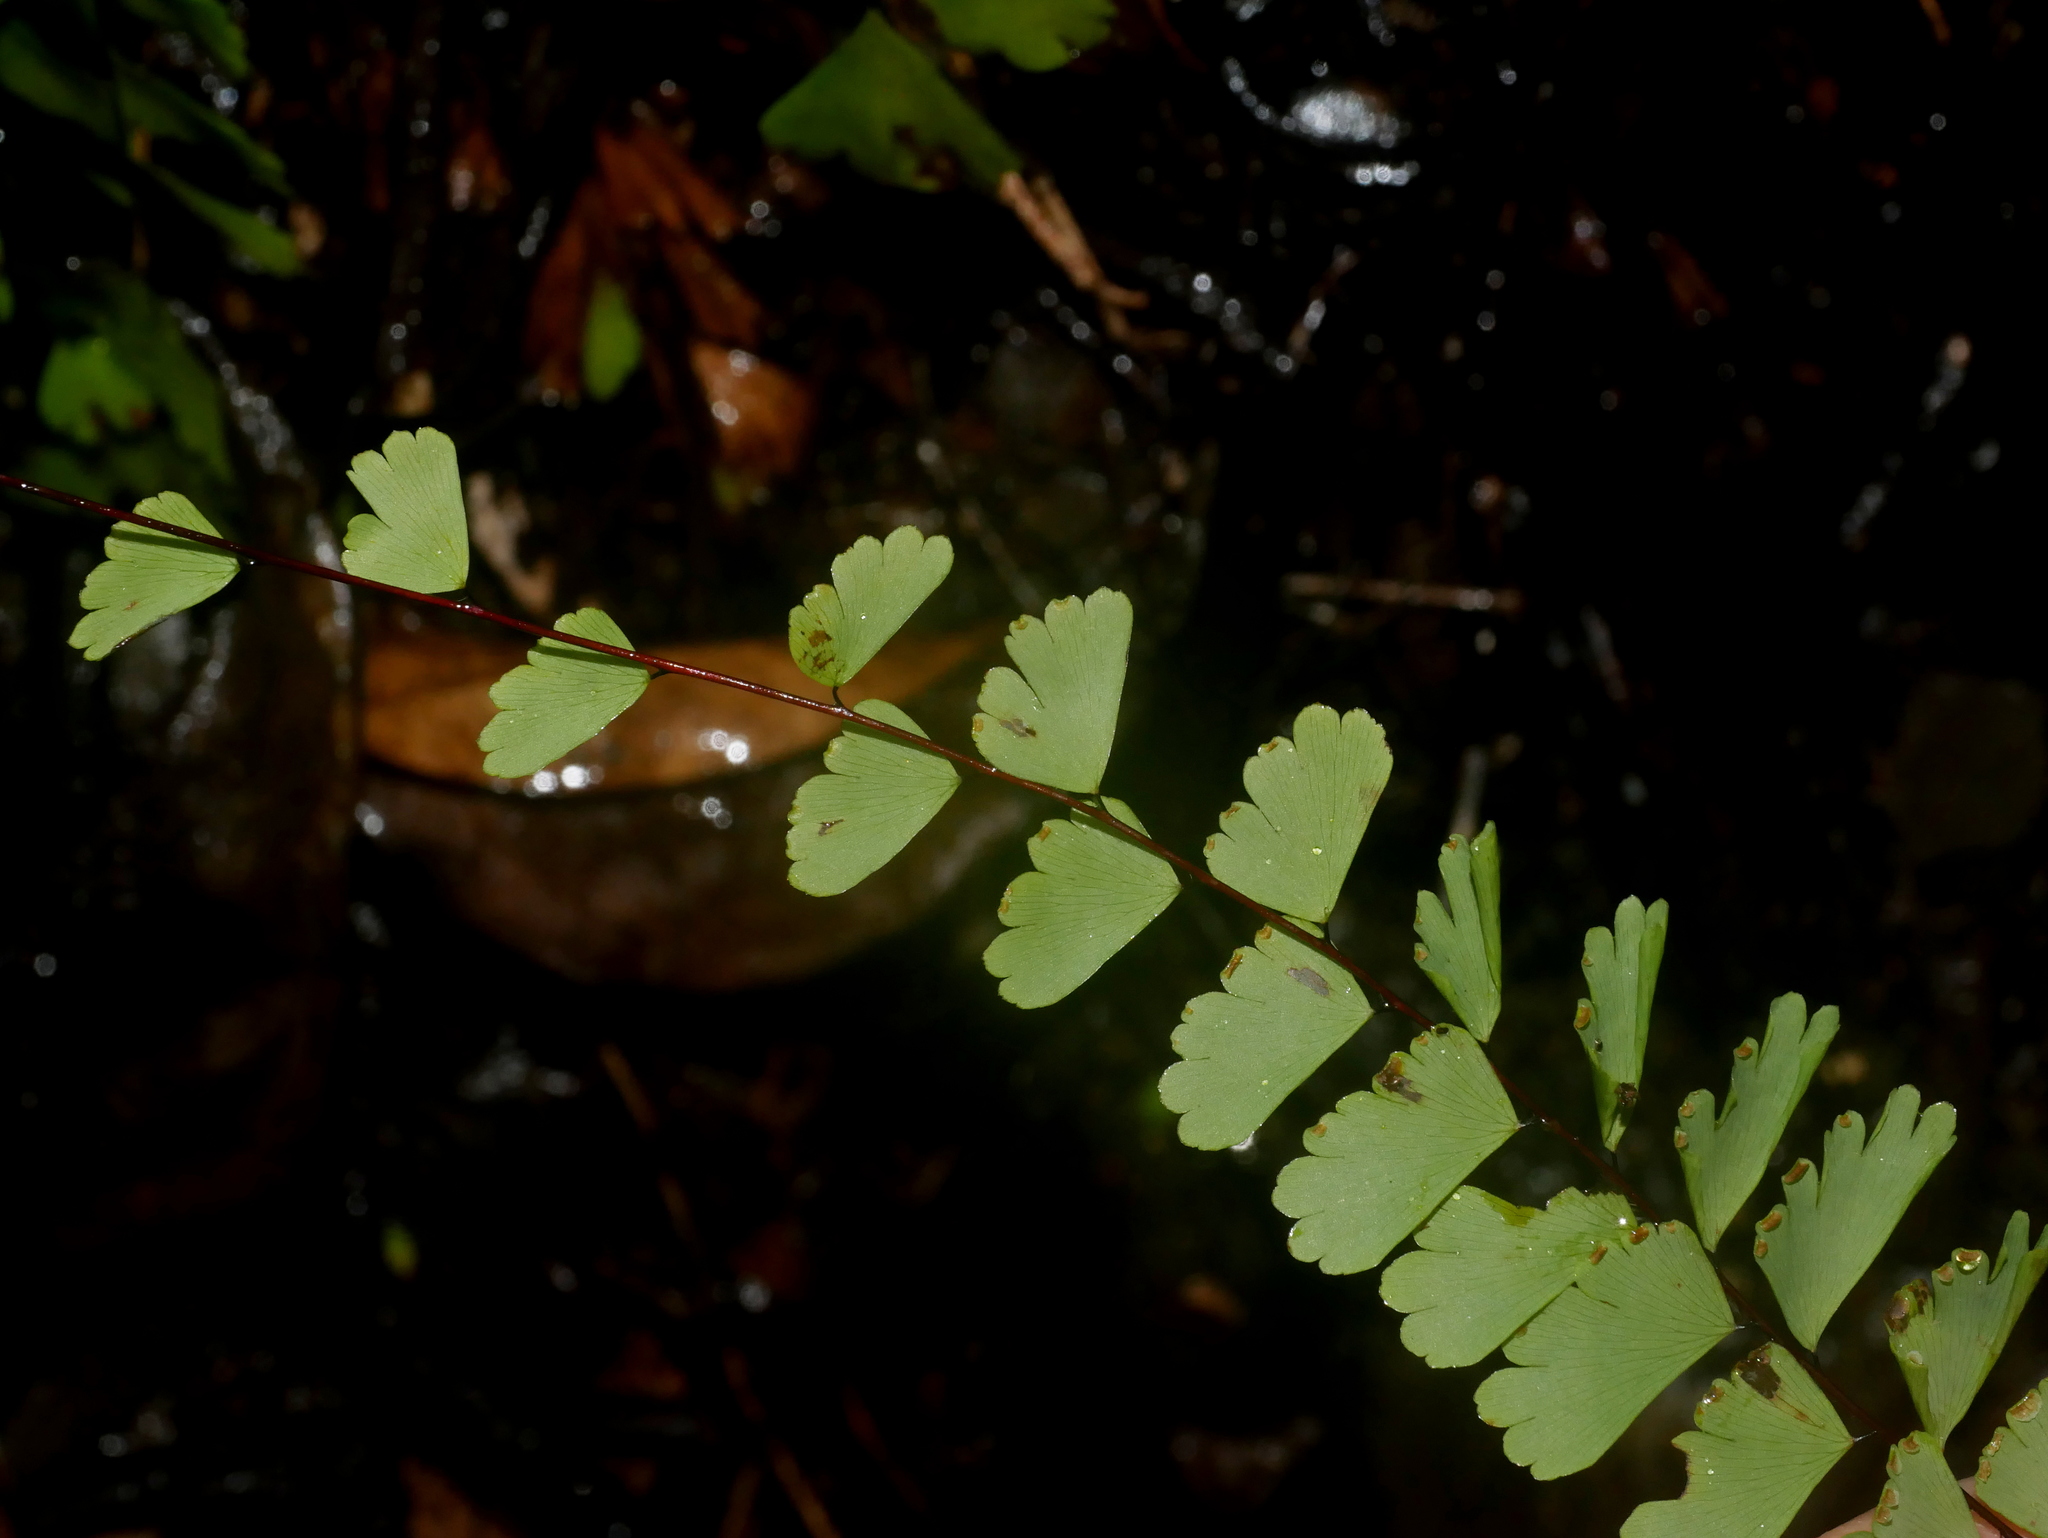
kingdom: Plantae
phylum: Tracheophyta
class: Polypodiopsida
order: Polypodiales
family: Pteridaceae
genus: Adiantum
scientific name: Adiantum meishanianum
